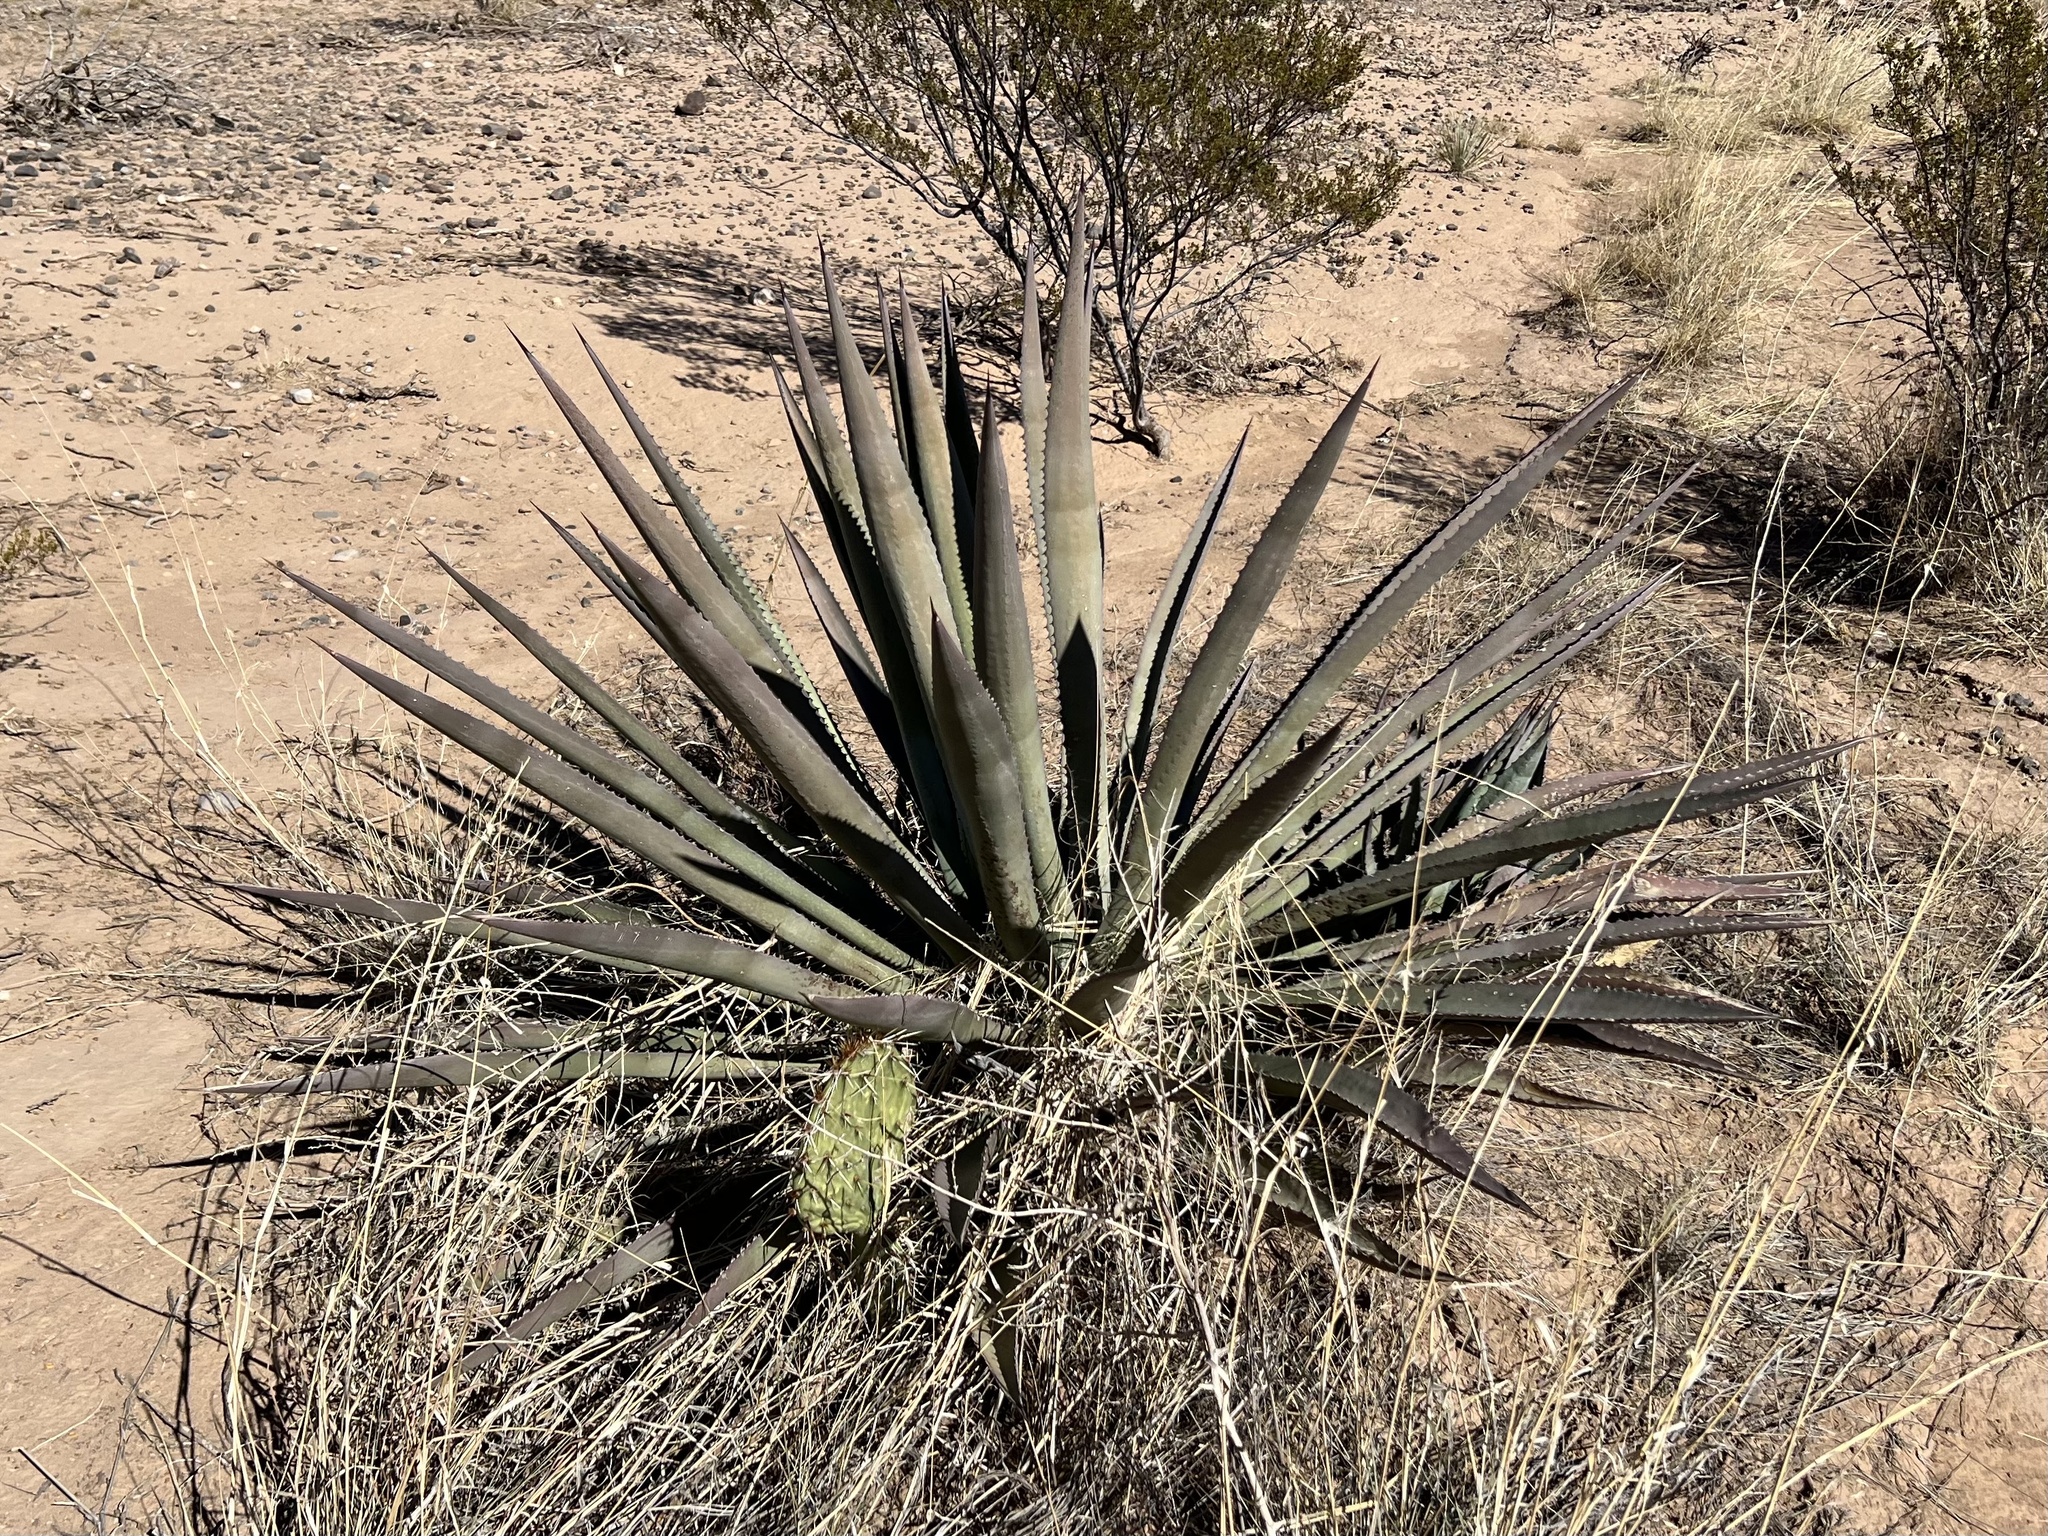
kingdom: Plantae
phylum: Tracheophyta
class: Liliopsida
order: Asparagales
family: Asparagaceae
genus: Agave
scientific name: Agave palmeri
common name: Palmer agave
